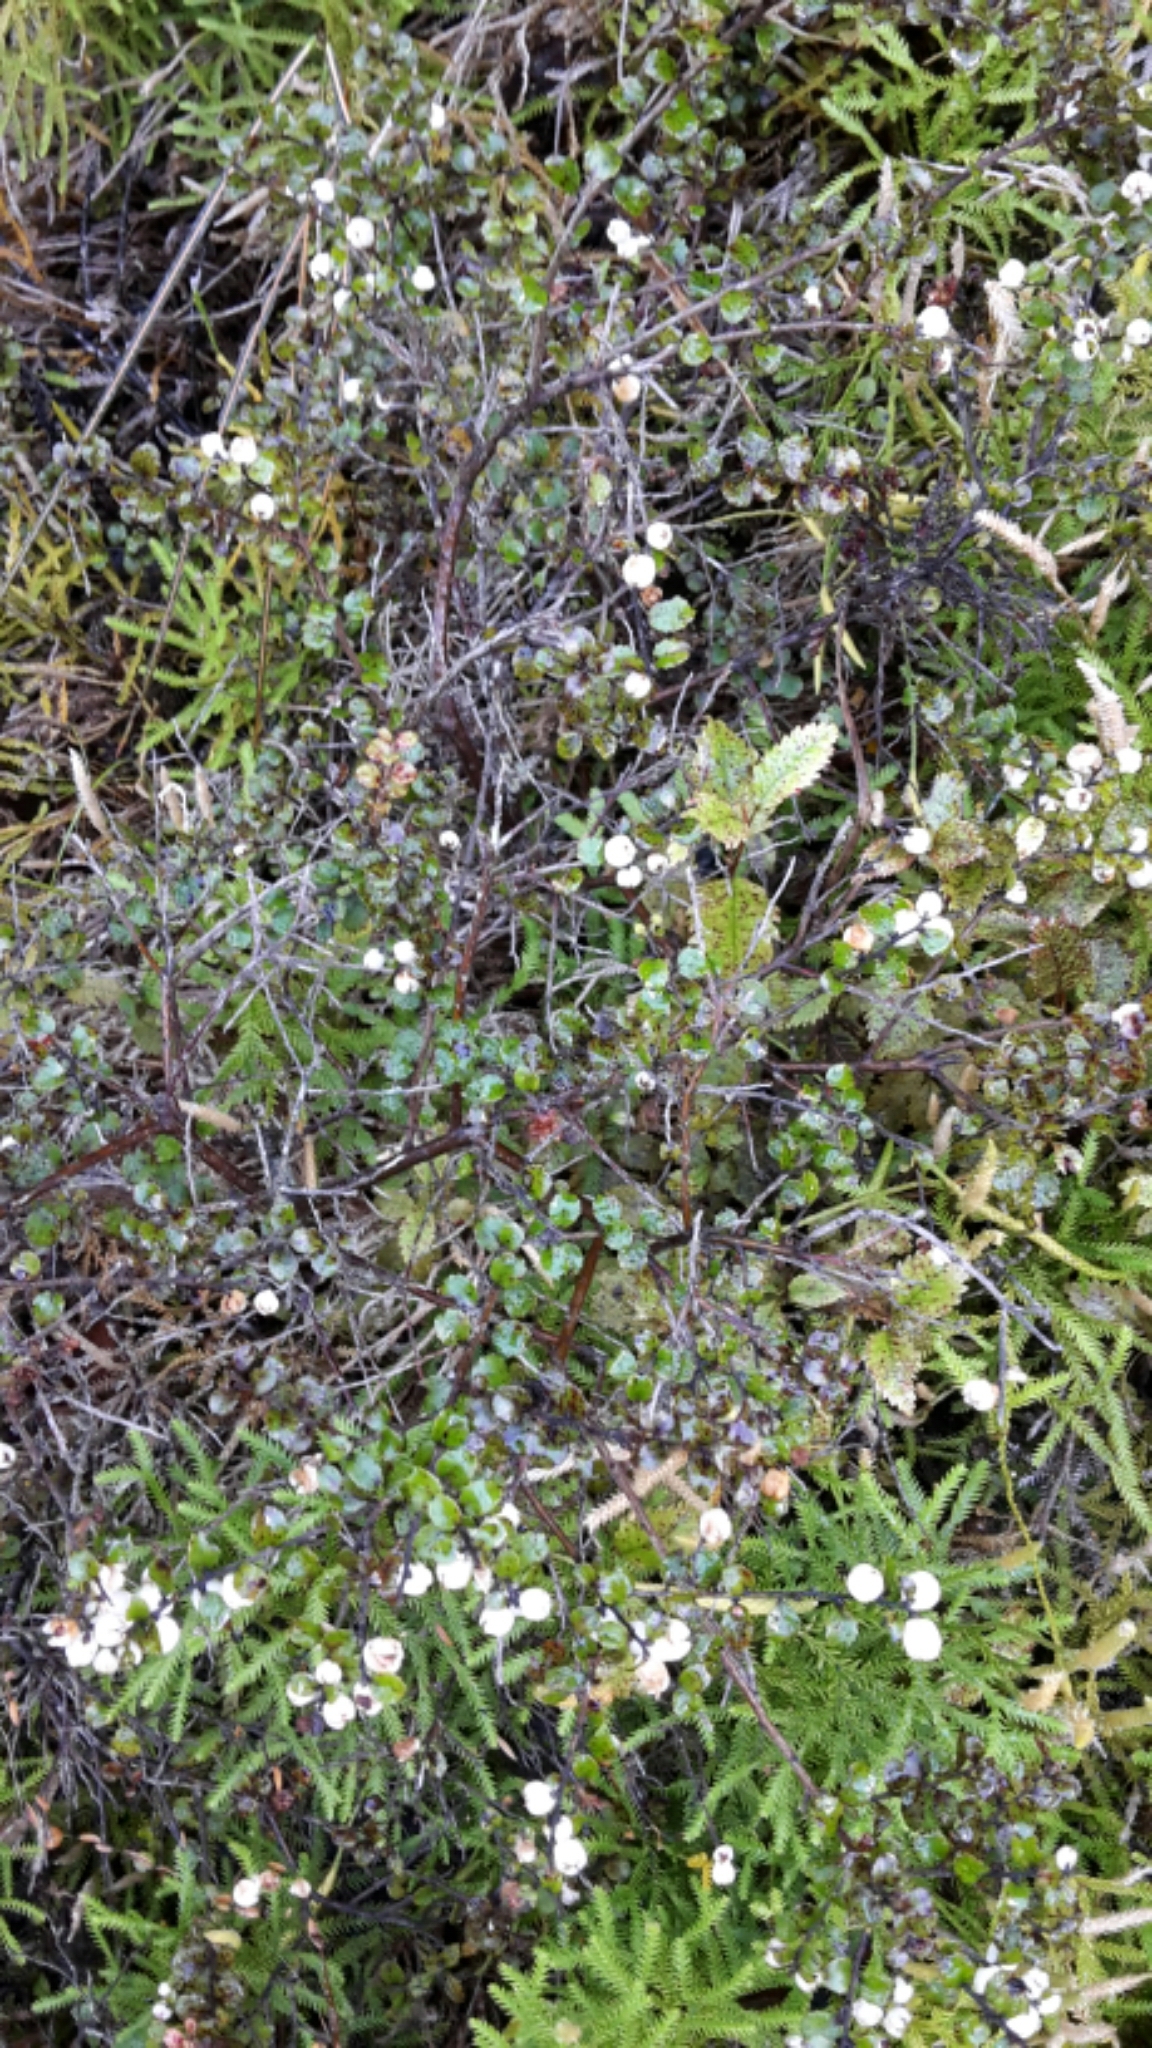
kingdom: Plantae
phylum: Tracheophyta
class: Magnoliopsida
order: Ericales
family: Ericaceae
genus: Gaultheria
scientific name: Gaultheria antipoda
